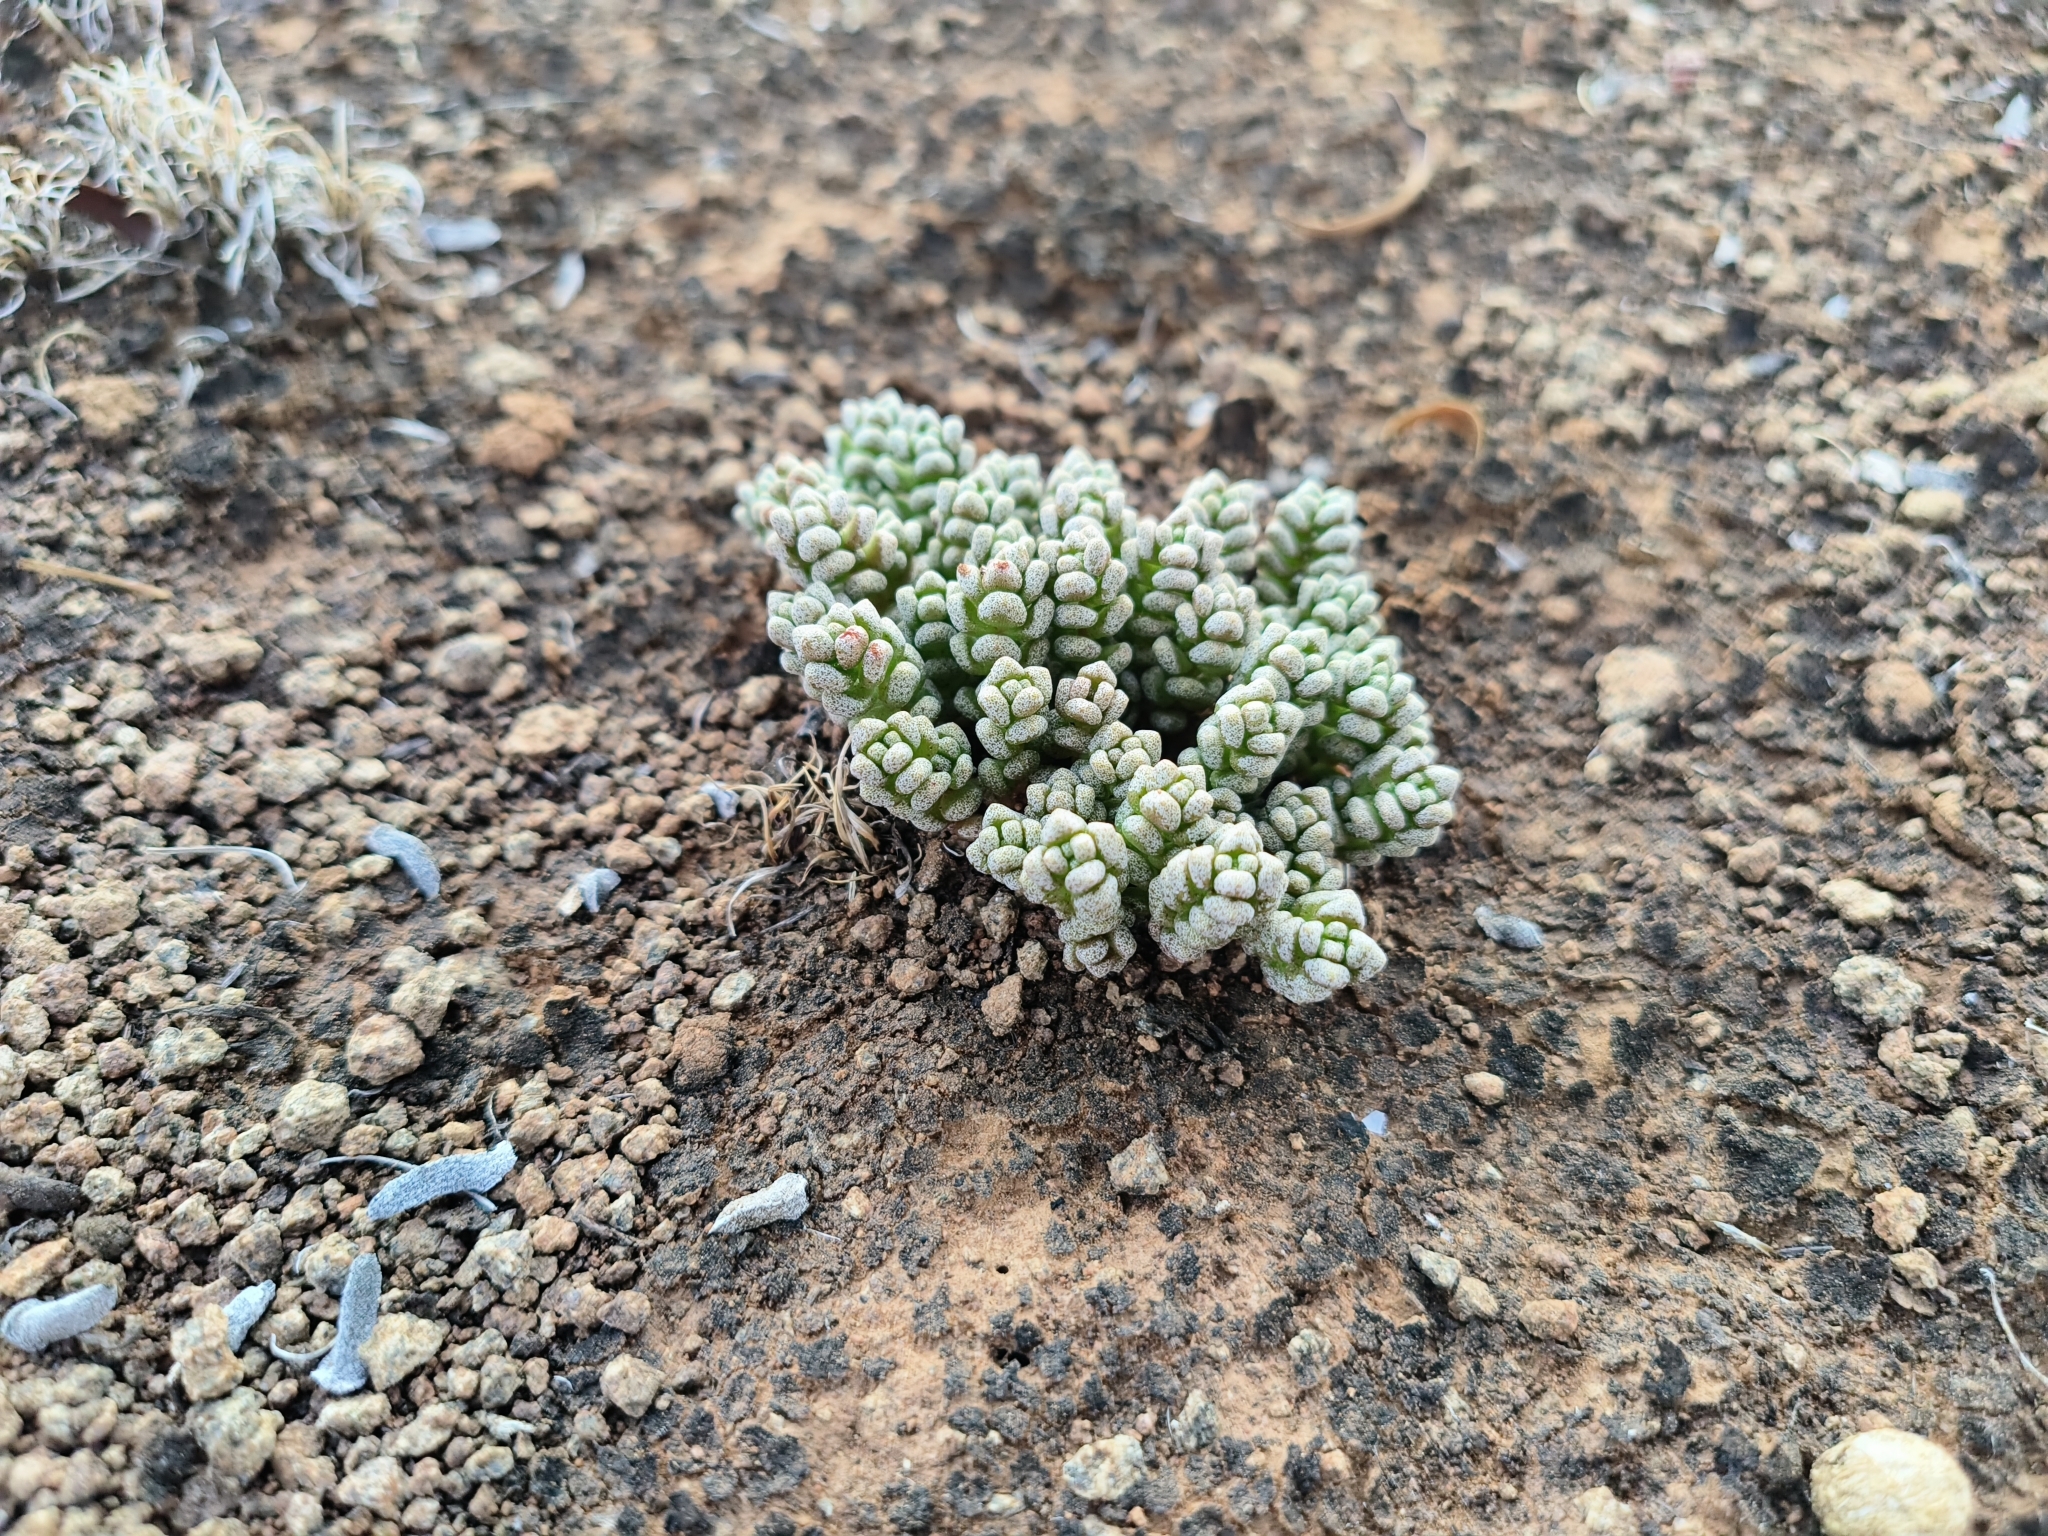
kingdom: Plantae
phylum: Tracheophyta
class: Magnoliopsida
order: Saxifragales
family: Crassulaceae
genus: Crassula
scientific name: Crassula corallina
